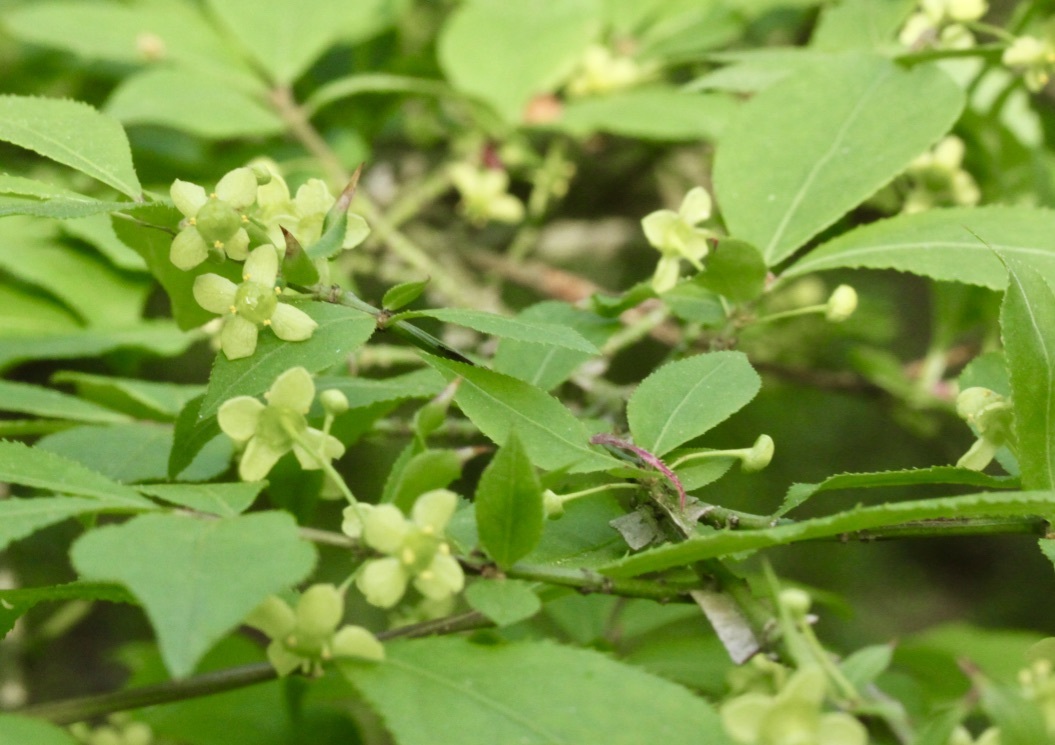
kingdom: Plantae
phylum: Tracheophyta
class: Magnoliopsida
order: Celastrales
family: Celastraceae
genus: Euonymus
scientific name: Euonymus alatus
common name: Winged euonymus
